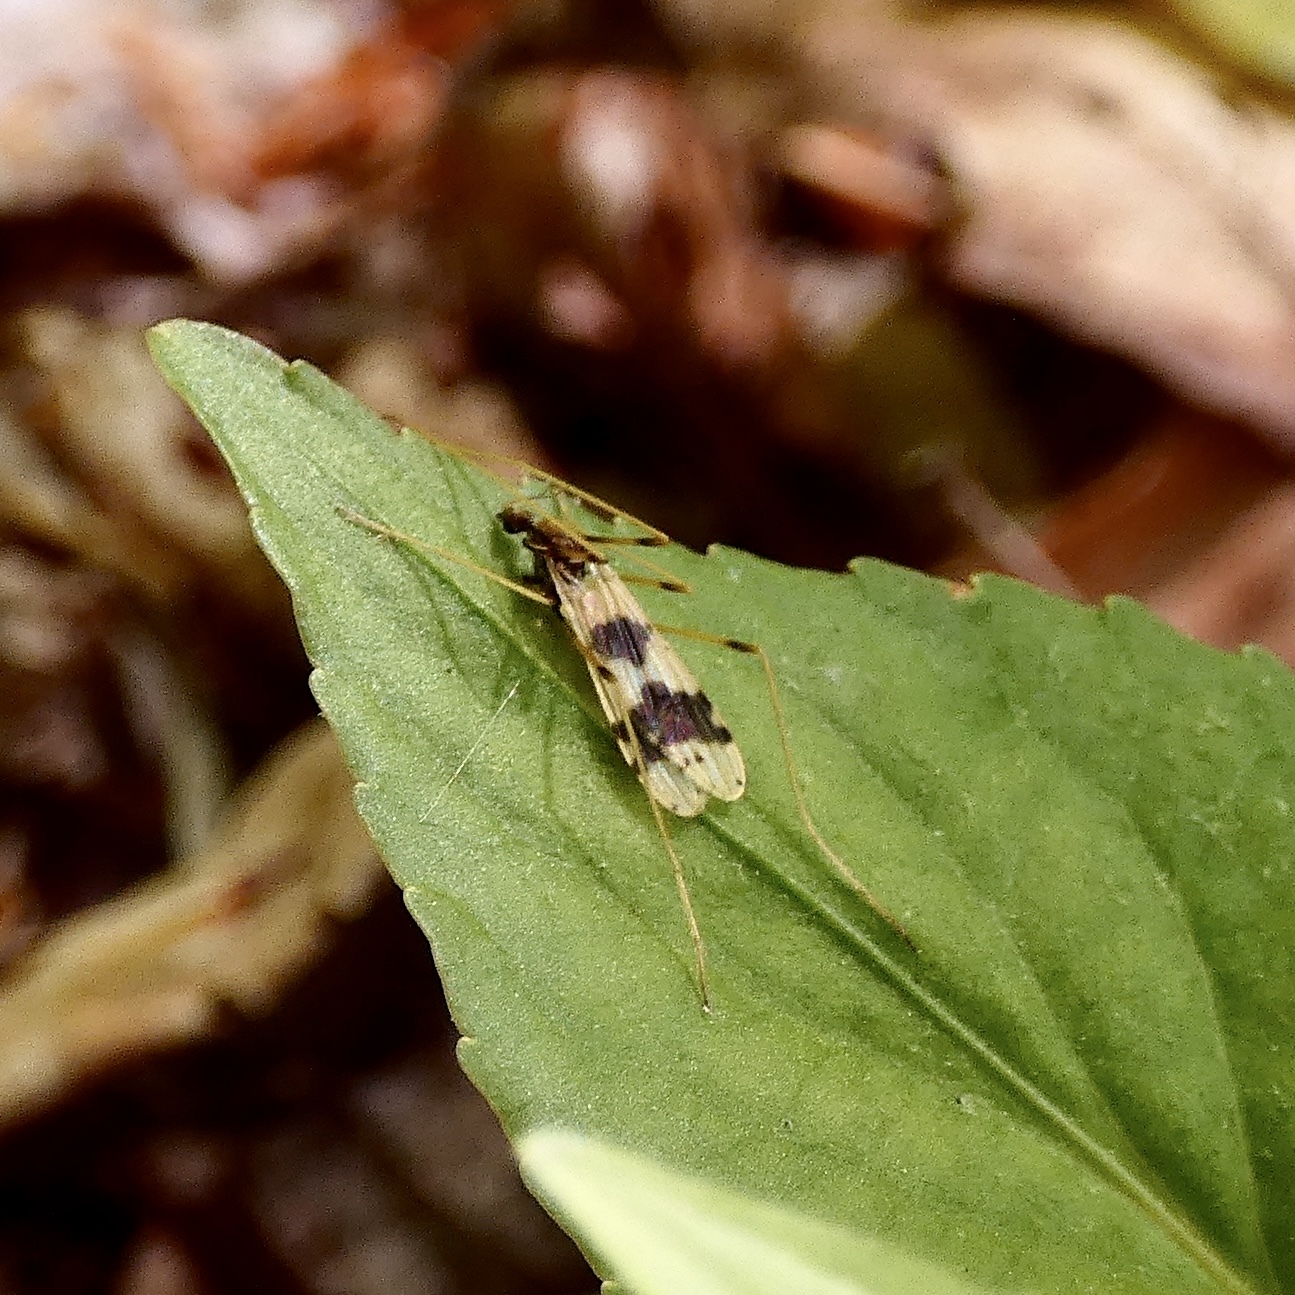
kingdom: Animalia
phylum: Arthropoda
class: Insecta
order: Diptera
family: Limoniidae
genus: Ilisia
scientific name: Ilisia venusta
